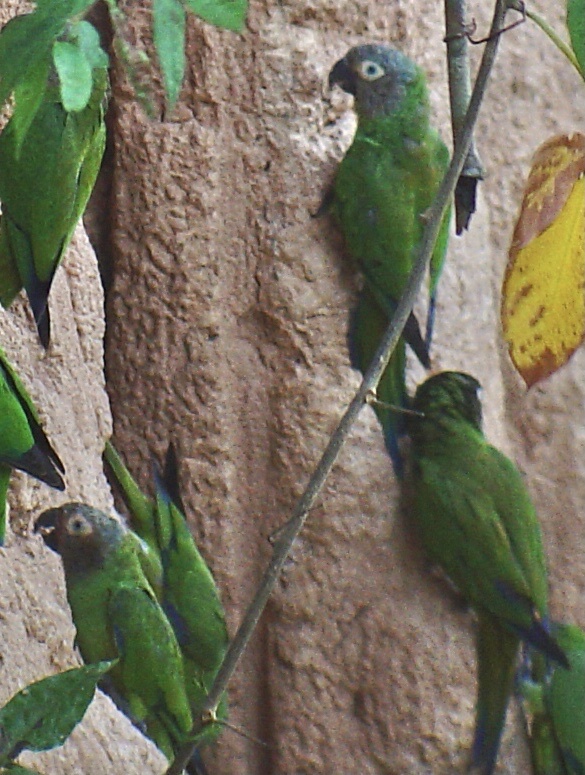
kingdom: Animalia
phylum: Chordata
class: Aves
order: Psittaciformes
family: Psittacidae
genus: Aratinga
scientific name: Aratinga weddellii
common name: Dusky-headed parakeet
